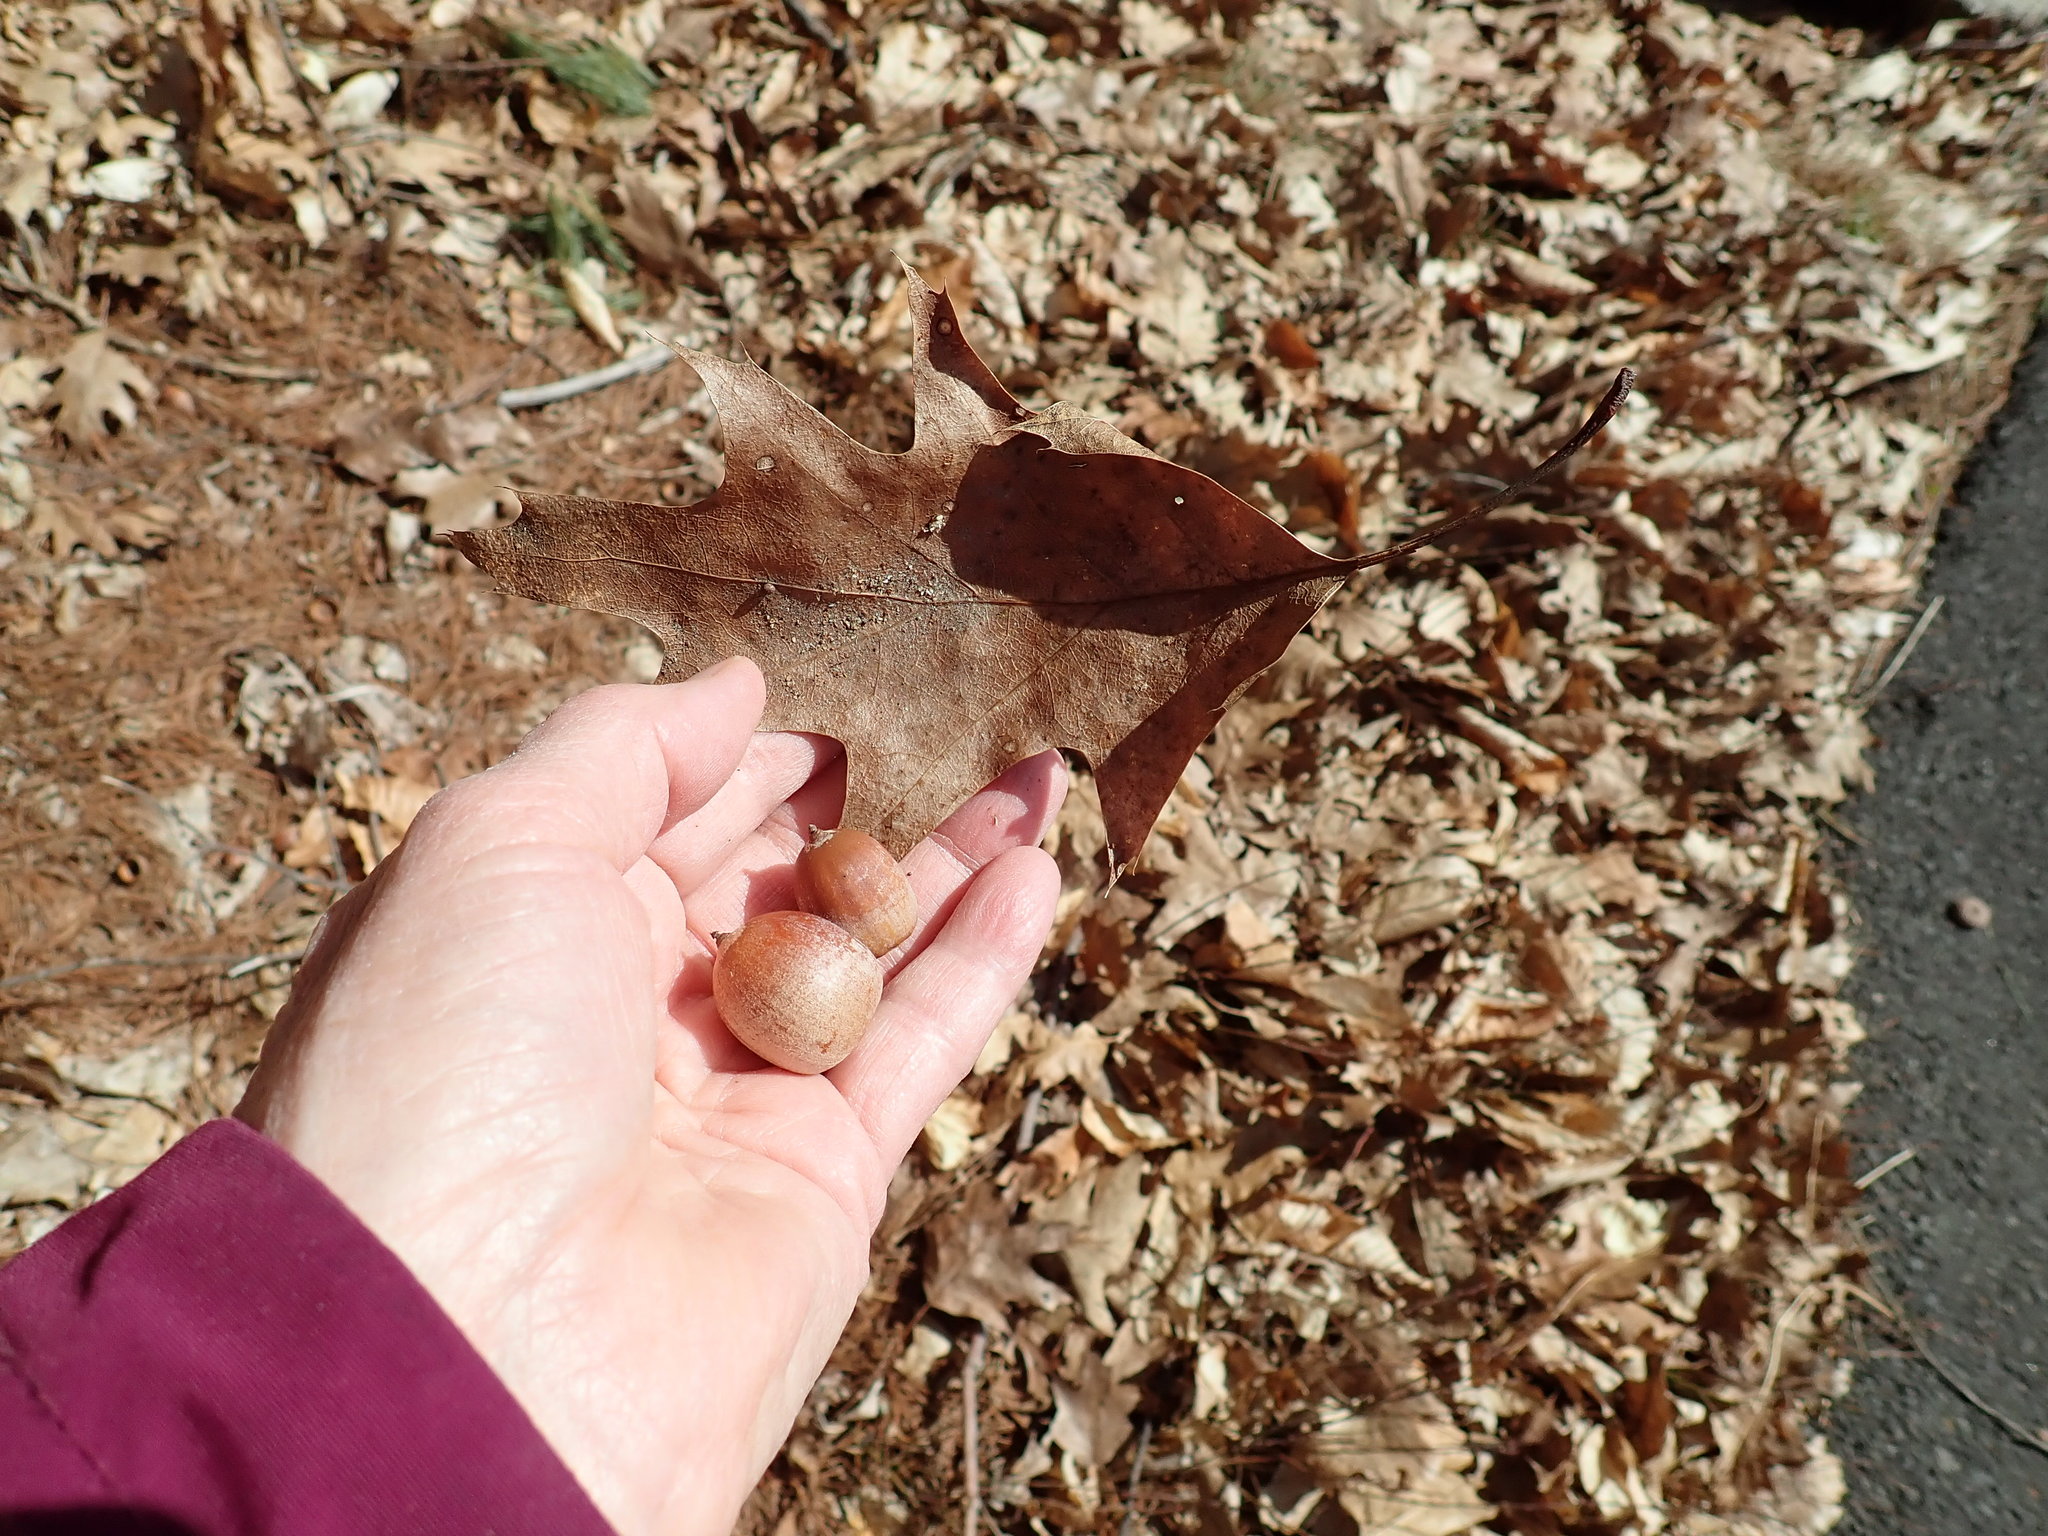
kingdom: Plantae
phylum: Tracheophyta
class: Magnoliopsida
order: Fagales
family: Fagaceae
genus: Quercus
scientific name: Quercus rubra
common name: Red oak
